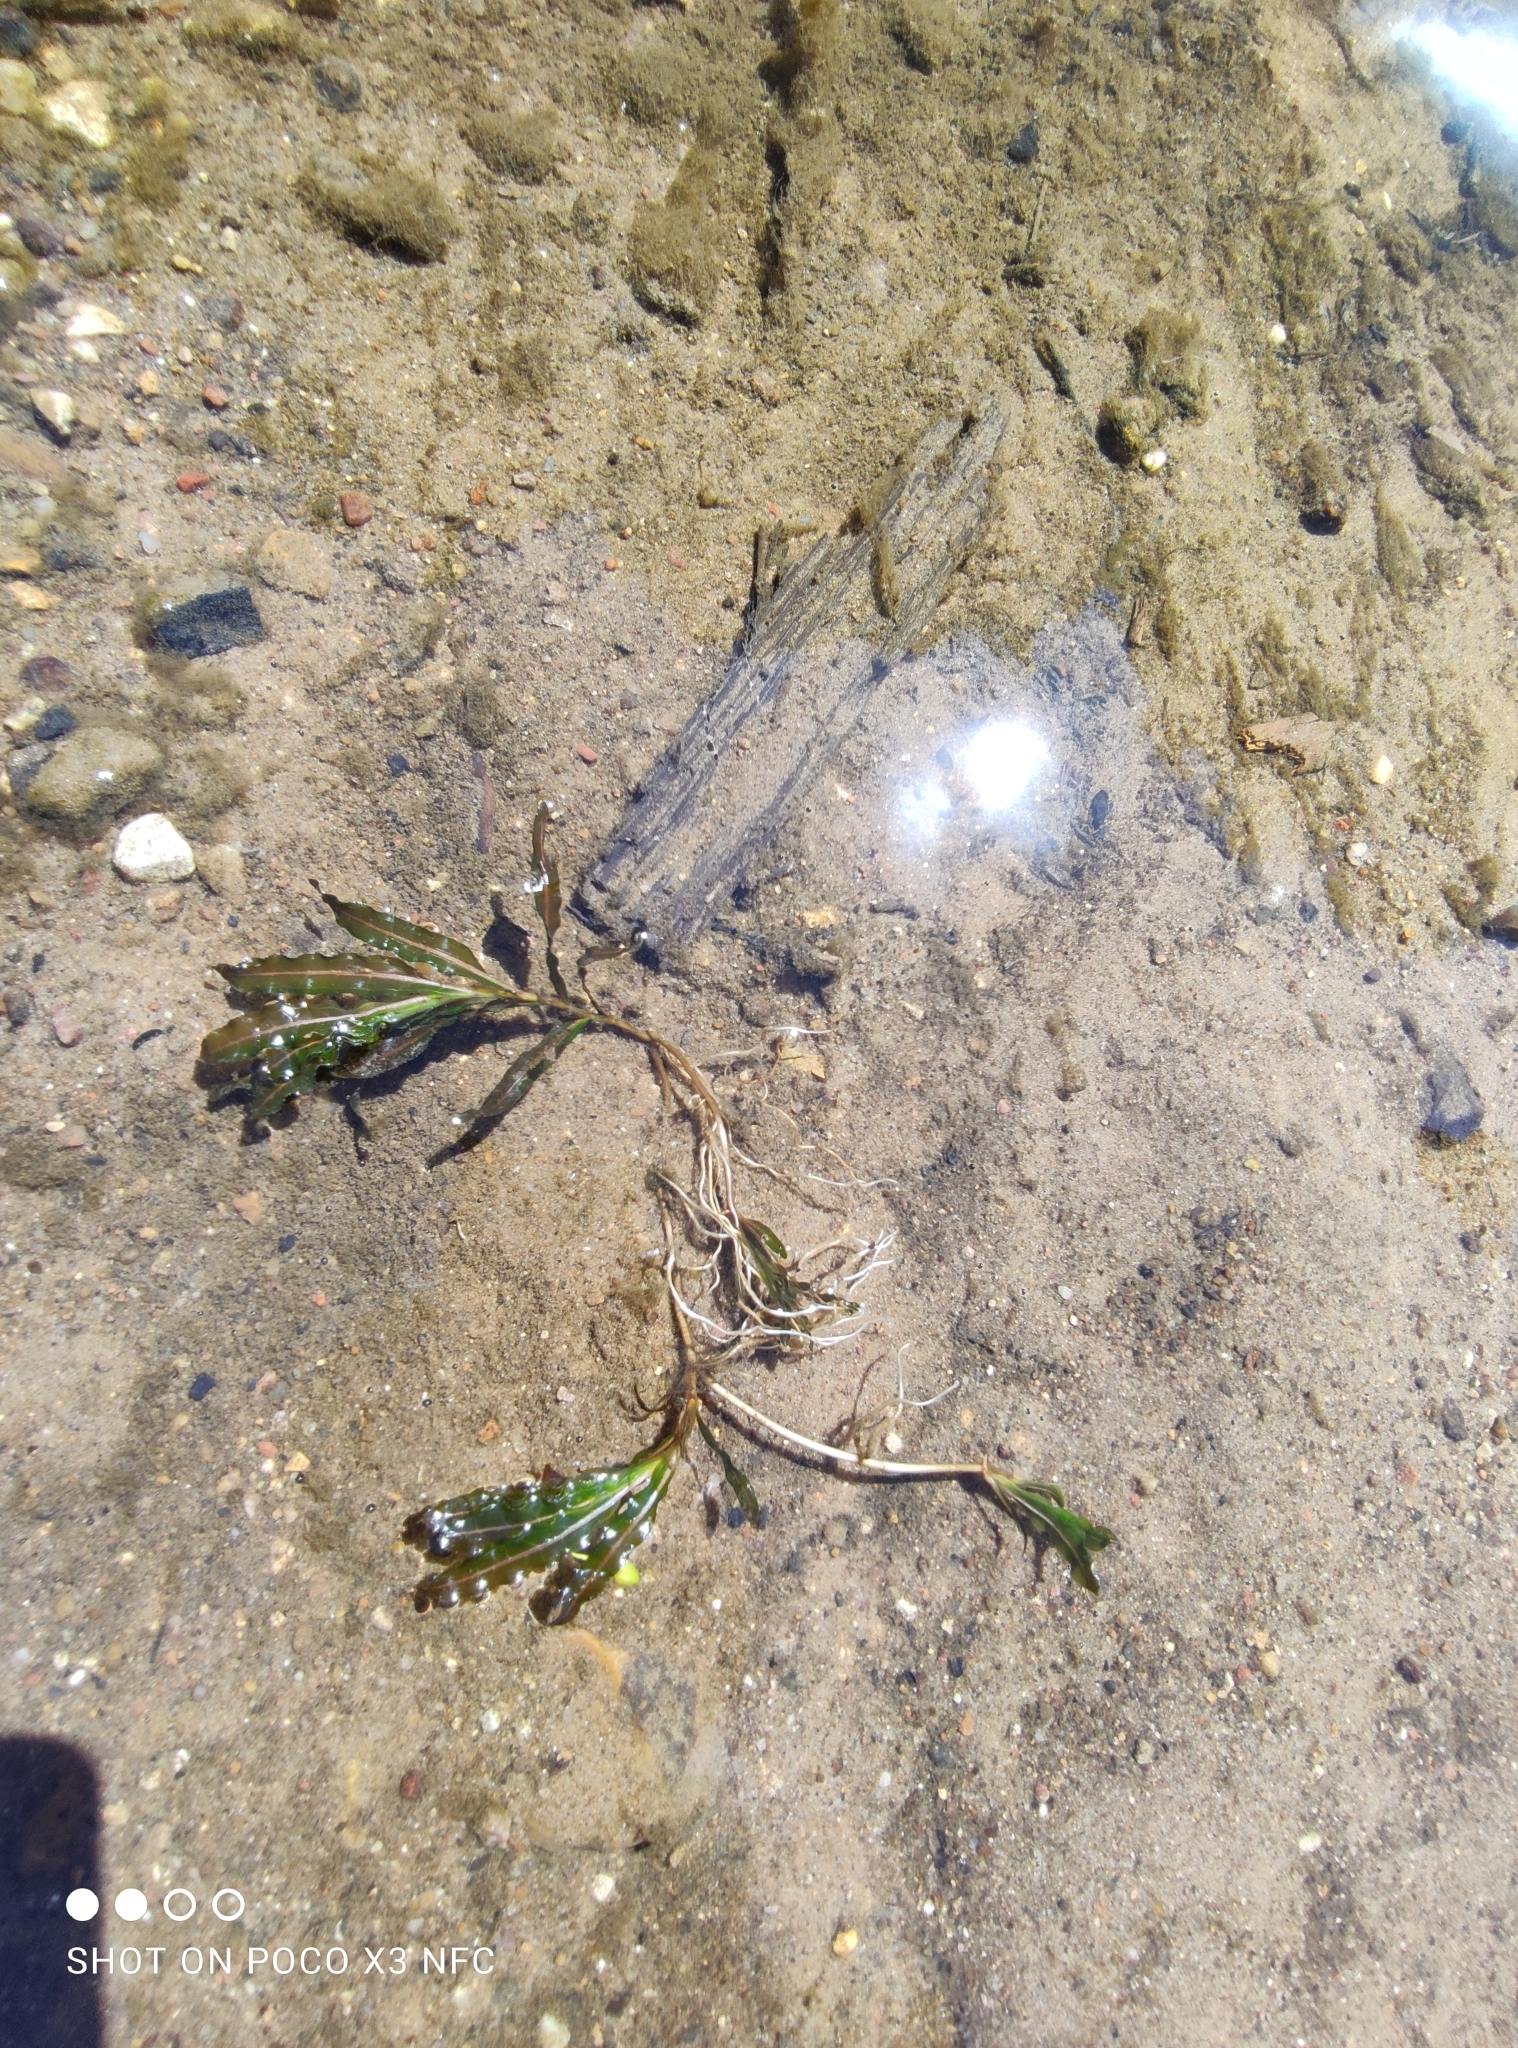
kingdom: Plantae
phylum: Tracheophyta
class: Liliopsida
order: Alismatales
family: Potamogetonaceae
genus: Potamogeton
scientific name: Potamogeton crispus
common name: Curled pondweed
